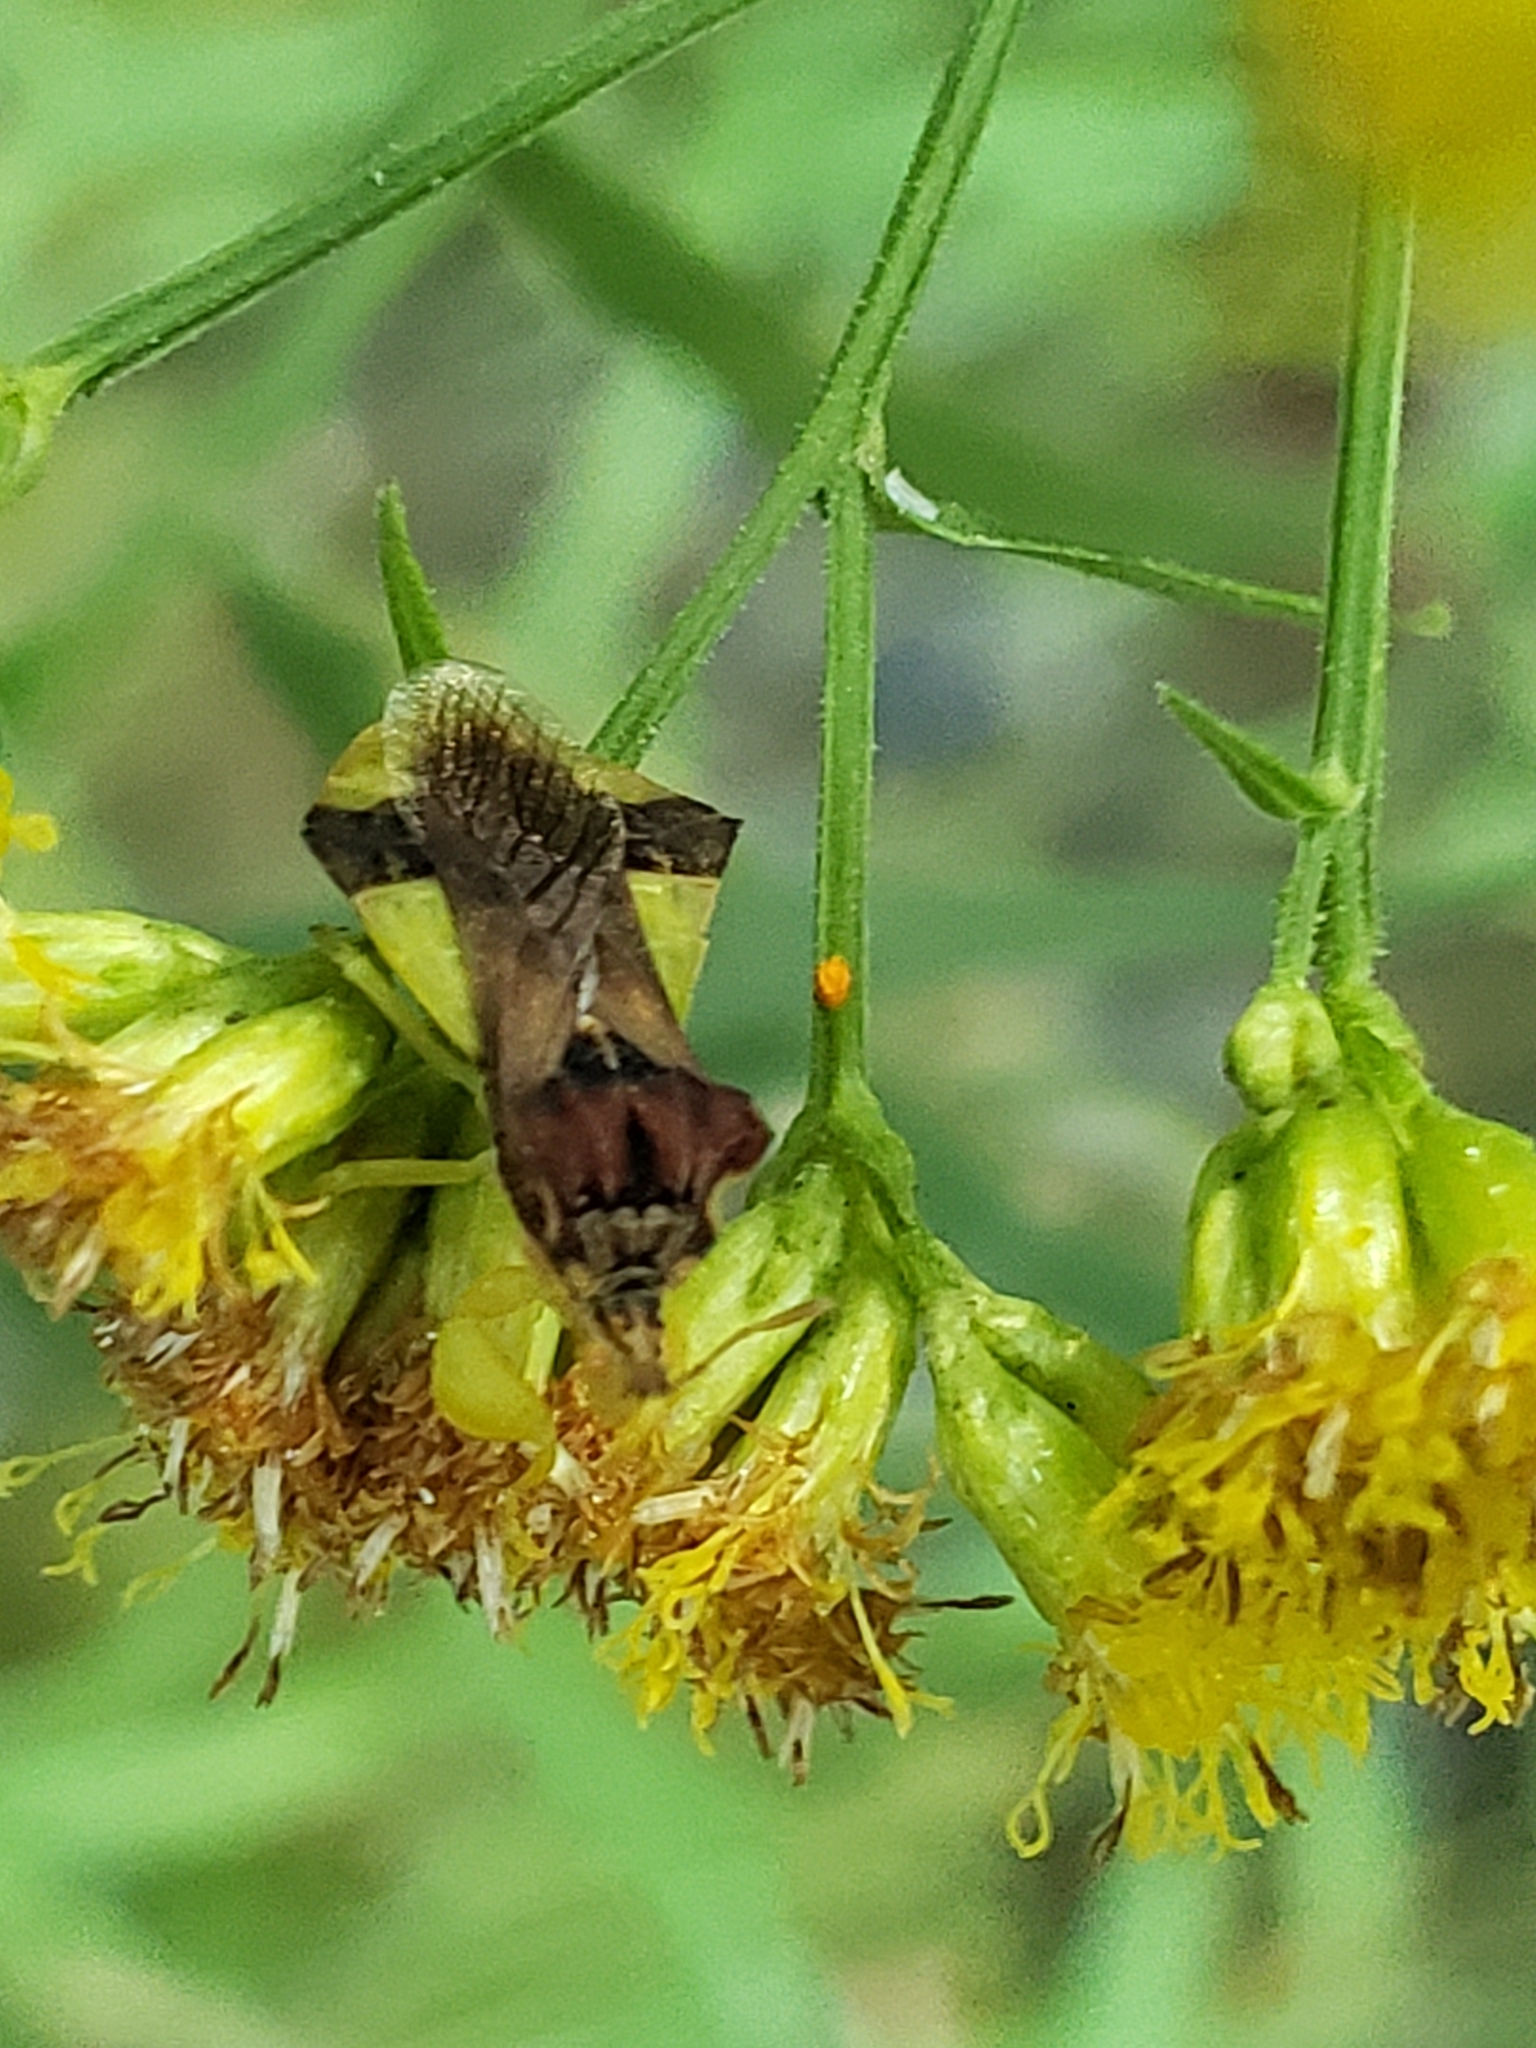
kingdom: Animalia
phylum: Arthropoda
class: Insecta
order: Hemiptera
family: Reduviidae
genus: Phymata
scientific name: Phymata pennsylvanica
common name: Pennsylvania ambush bug
